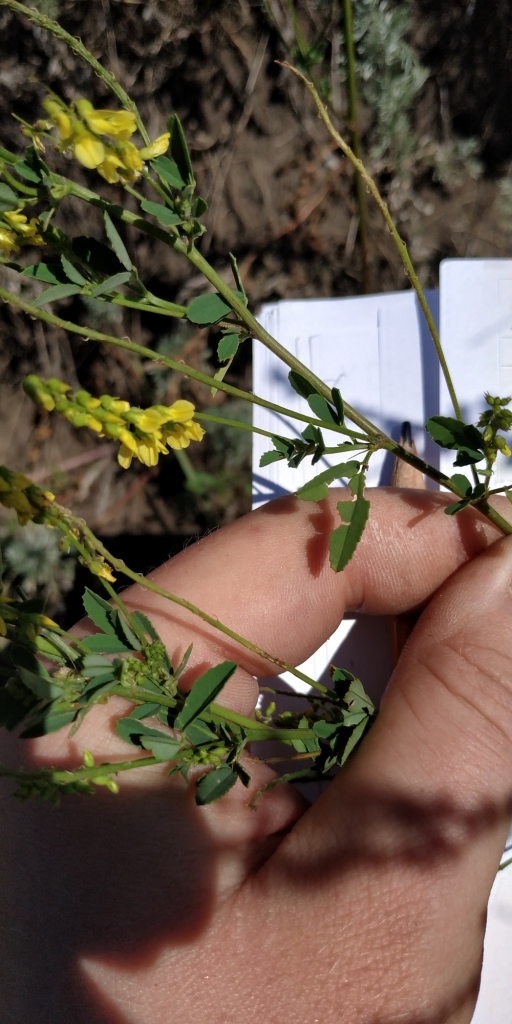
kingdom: Plantae
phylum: Tracheophyta
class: Magnoliopsida
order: Fabales
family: Fabaceae
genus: Melilotus
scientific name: Melilotus officinalis
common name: Sweetclover
